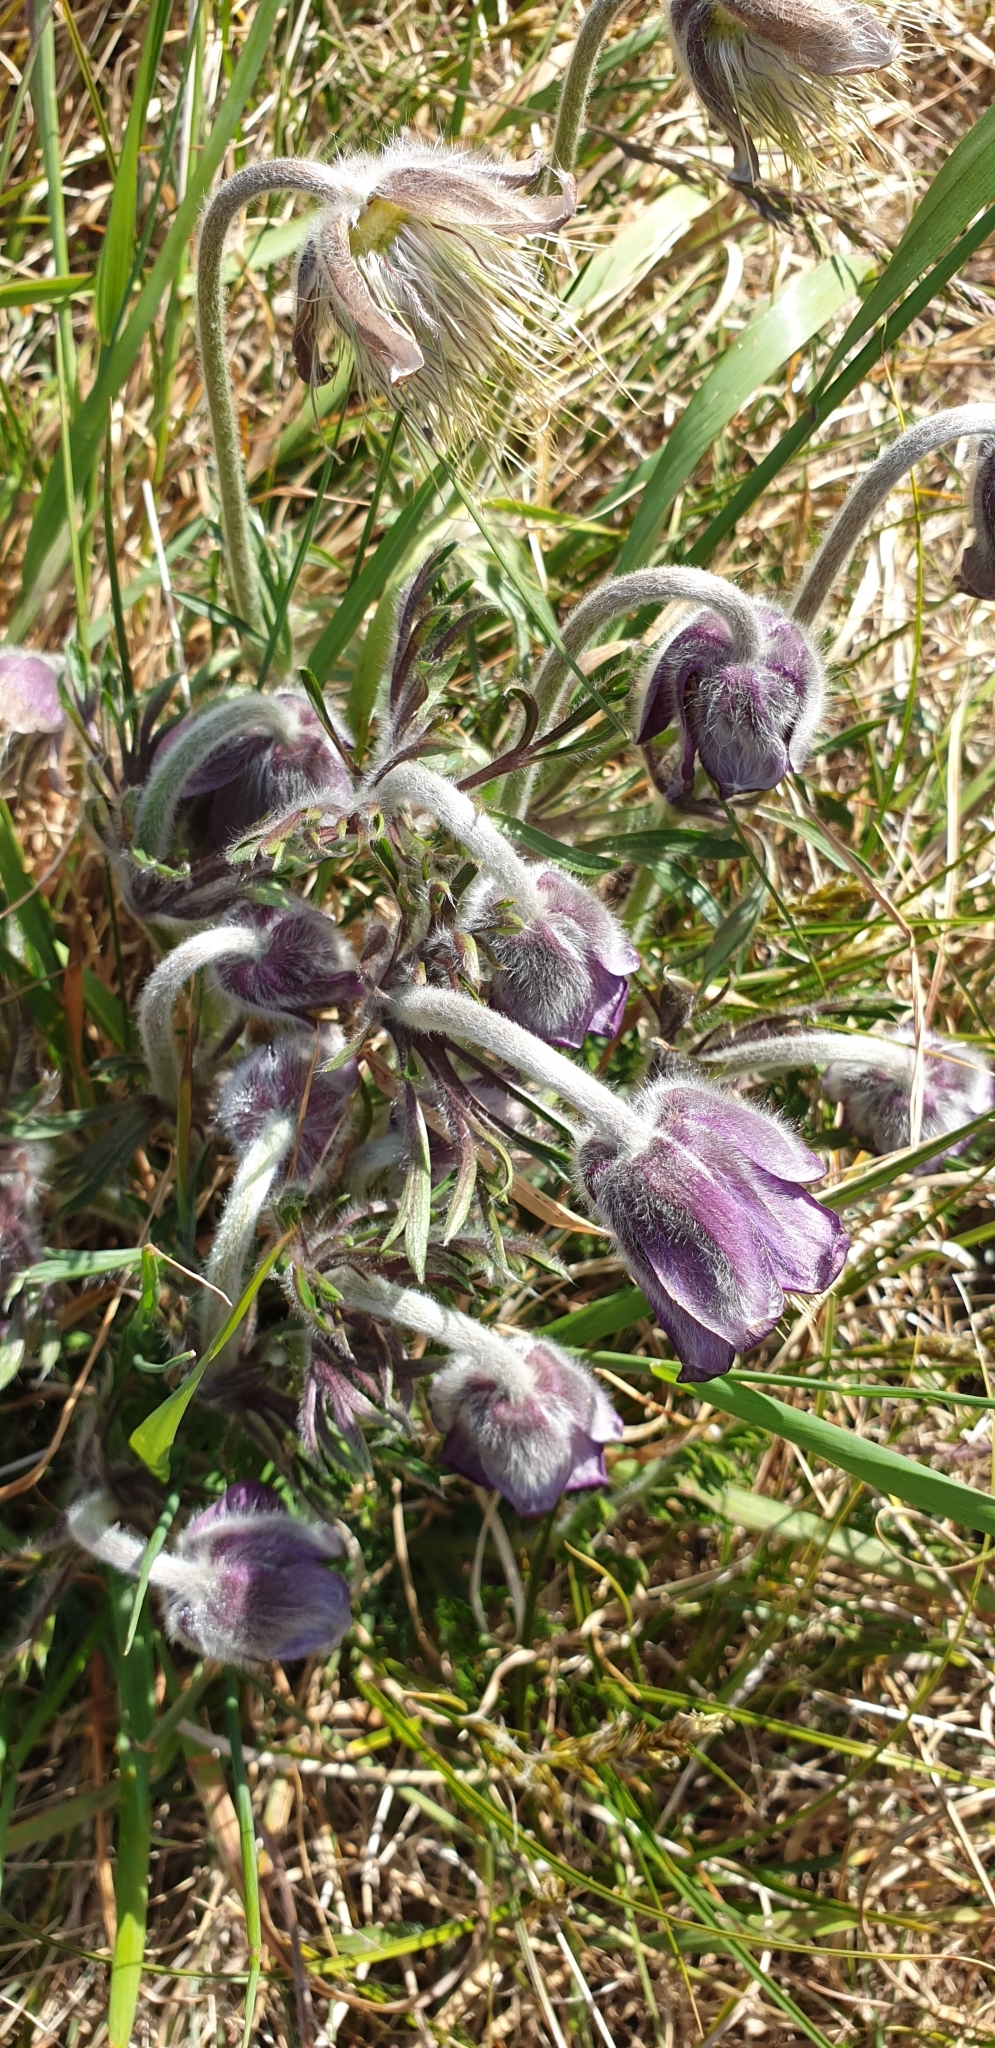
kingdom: Plantae
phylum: Tracheophyta
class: Magnoliopsida
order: Ranunculales
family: Ranunculaceae
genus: Pulsatilla
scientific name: Pulsatilla pratensis
